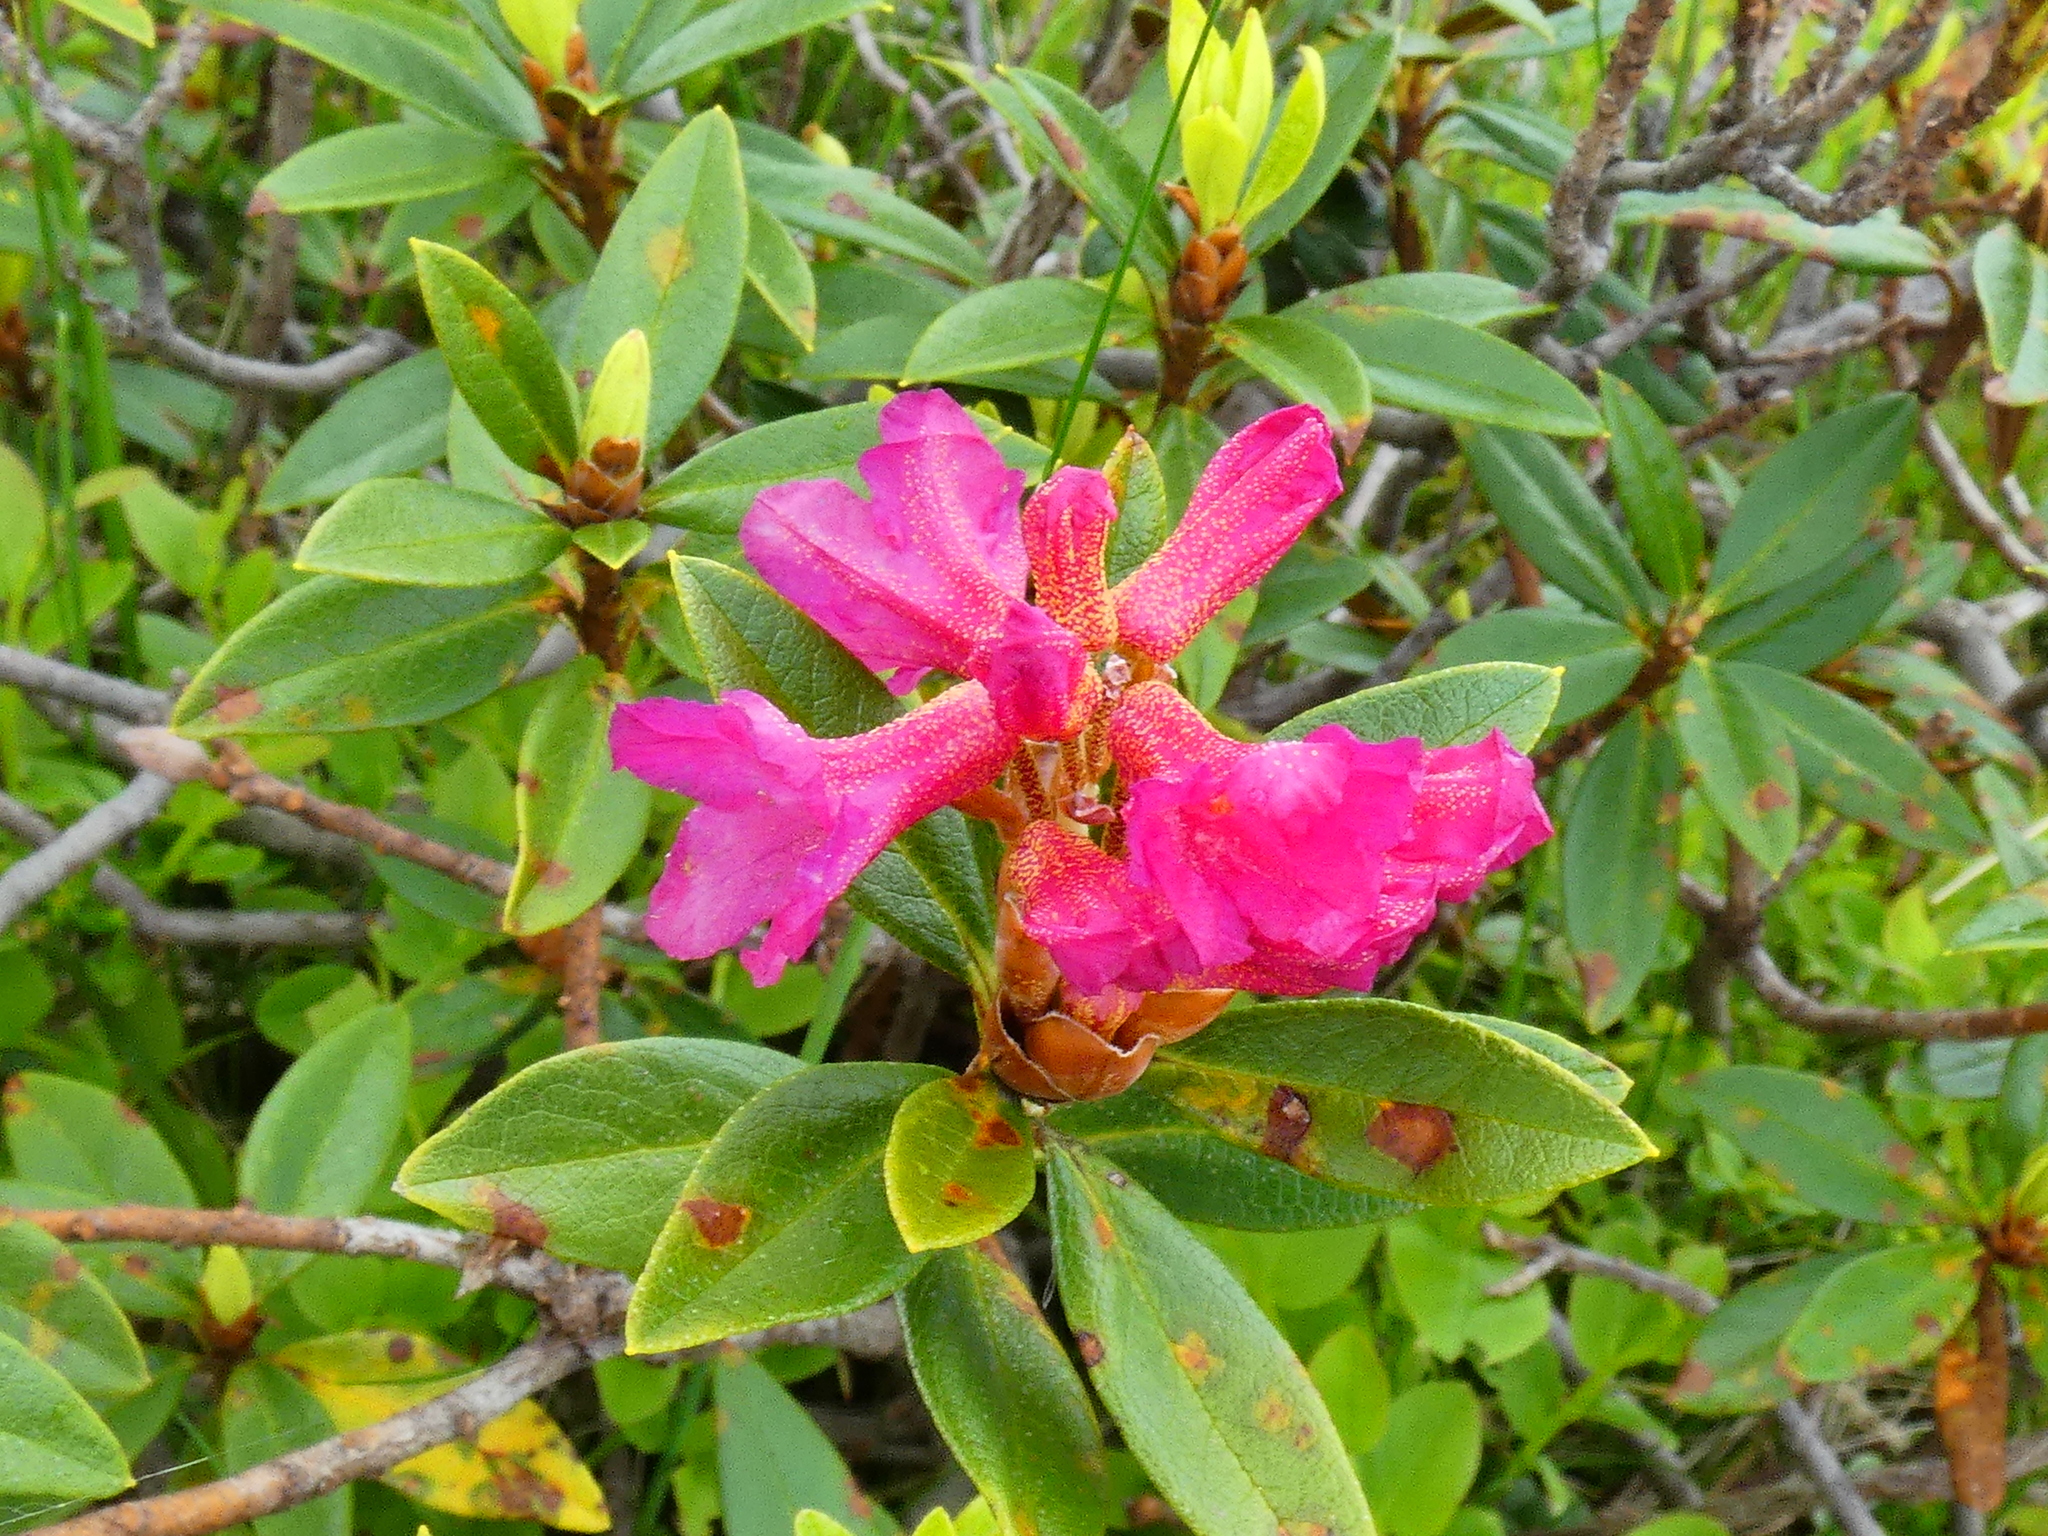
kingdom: Plantae
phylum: Tracheophyta
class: Magnoliopsida
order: Ericales
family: Ericaceae
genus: Rhododendron
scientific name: Rhododendron ferrugineum
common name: Alpenrose
